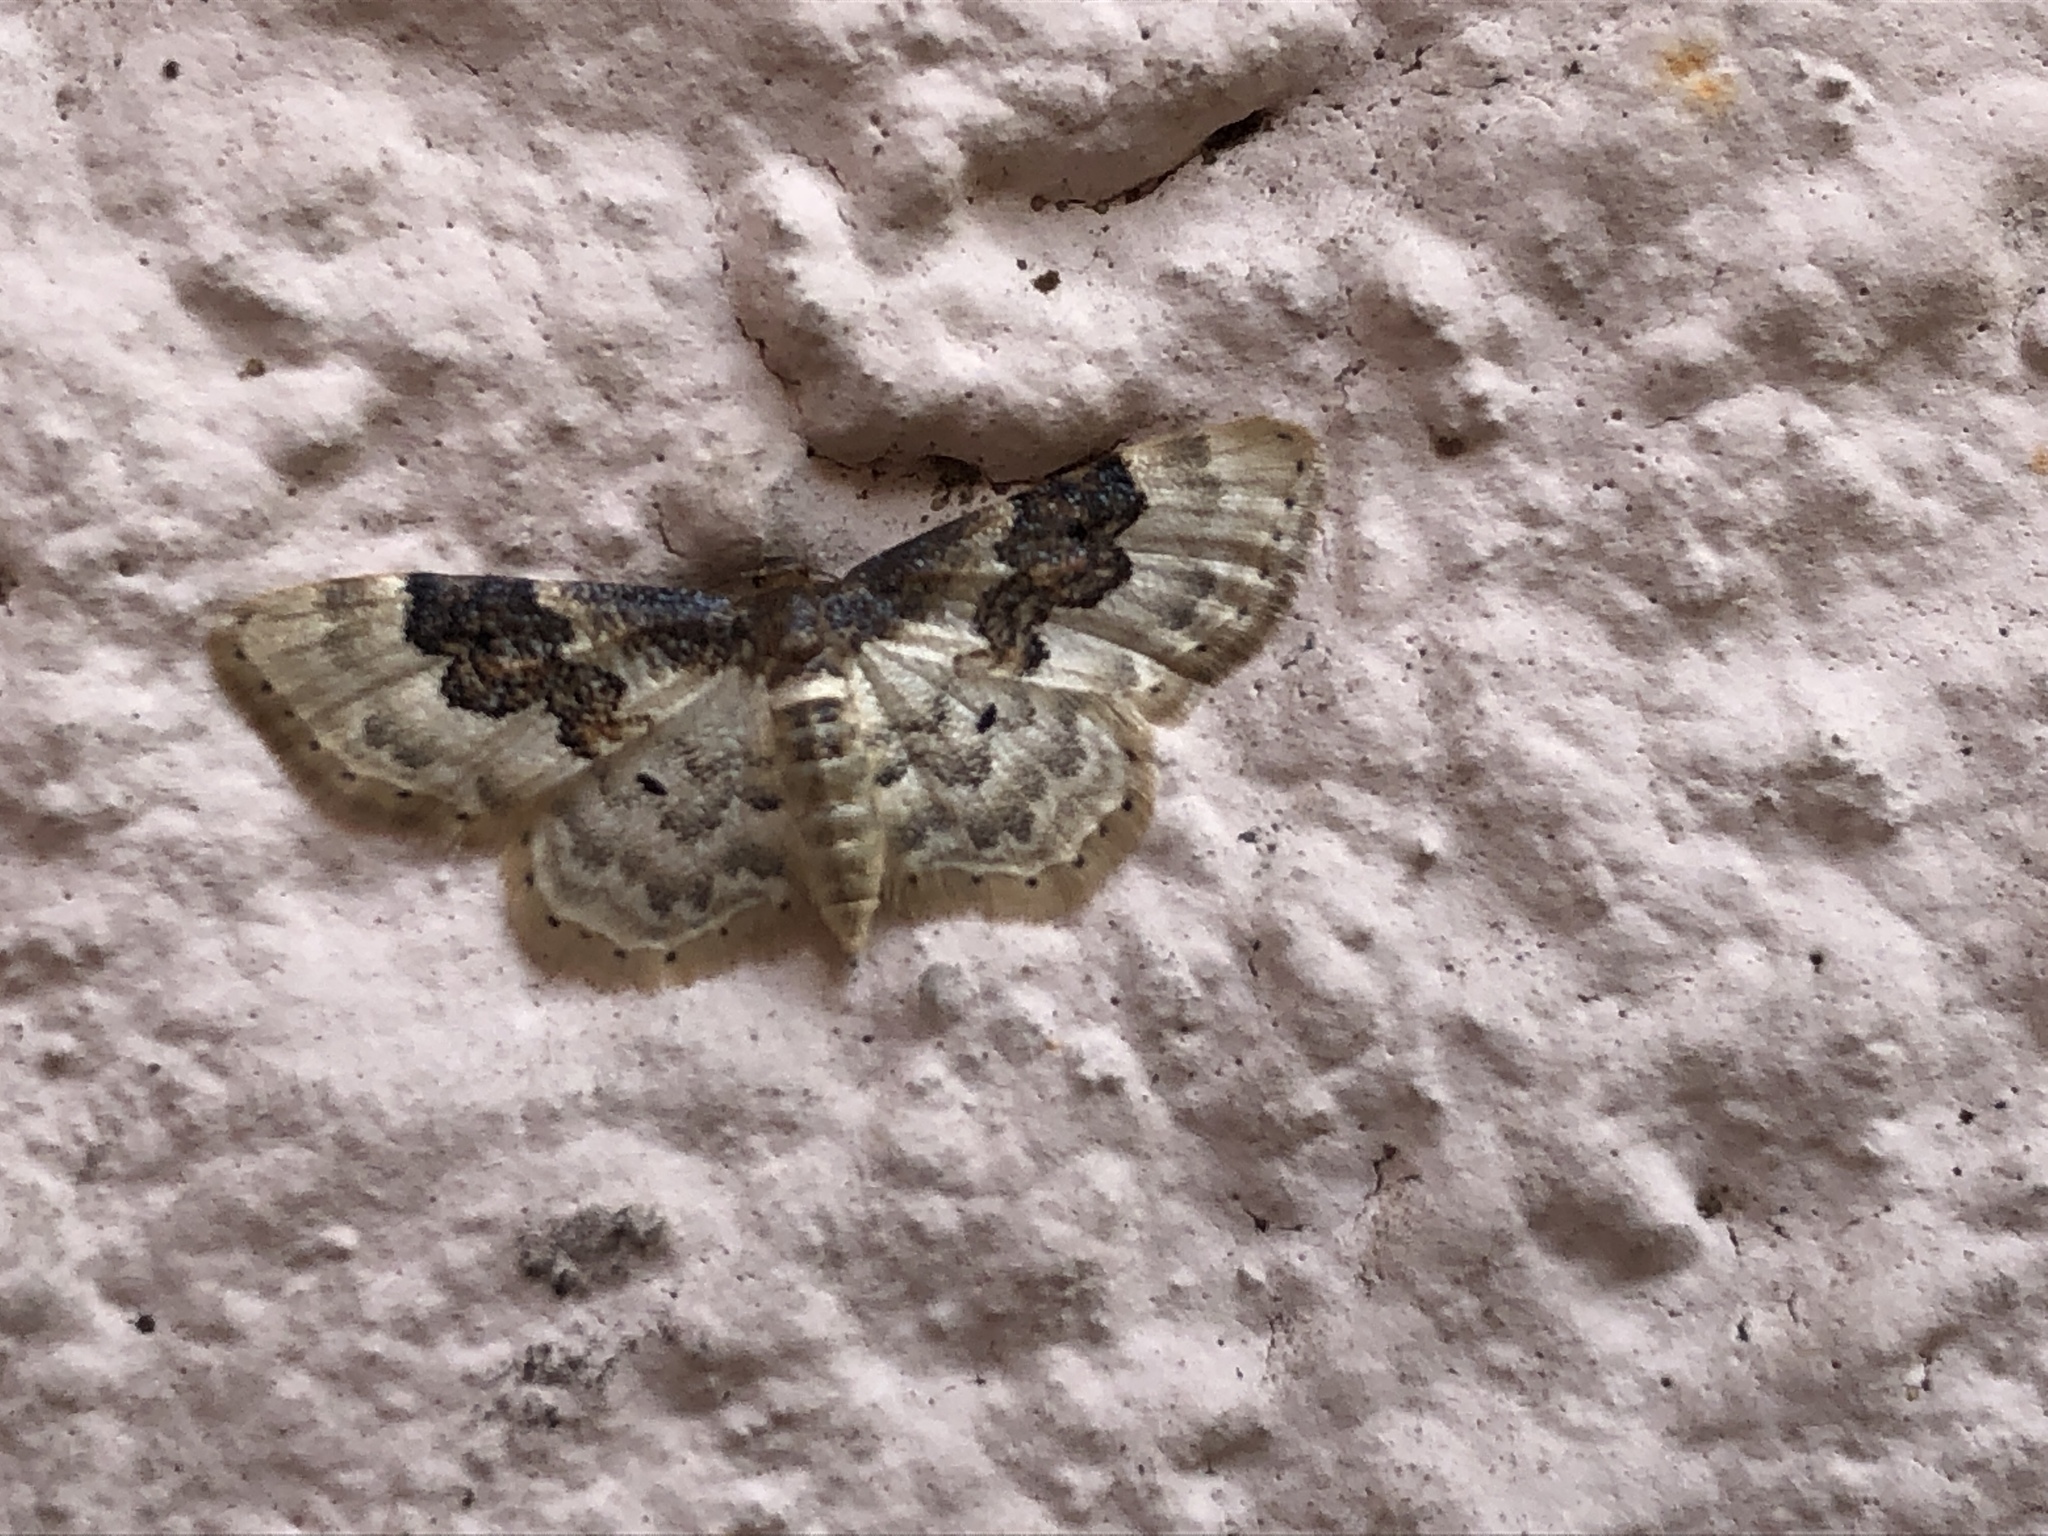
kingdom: Animalia
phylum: Arthropoda
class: Insecta
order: Lepidoptera
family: Geometridae
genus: Idaea
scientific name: Idaea rusticata
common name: Least carpet
